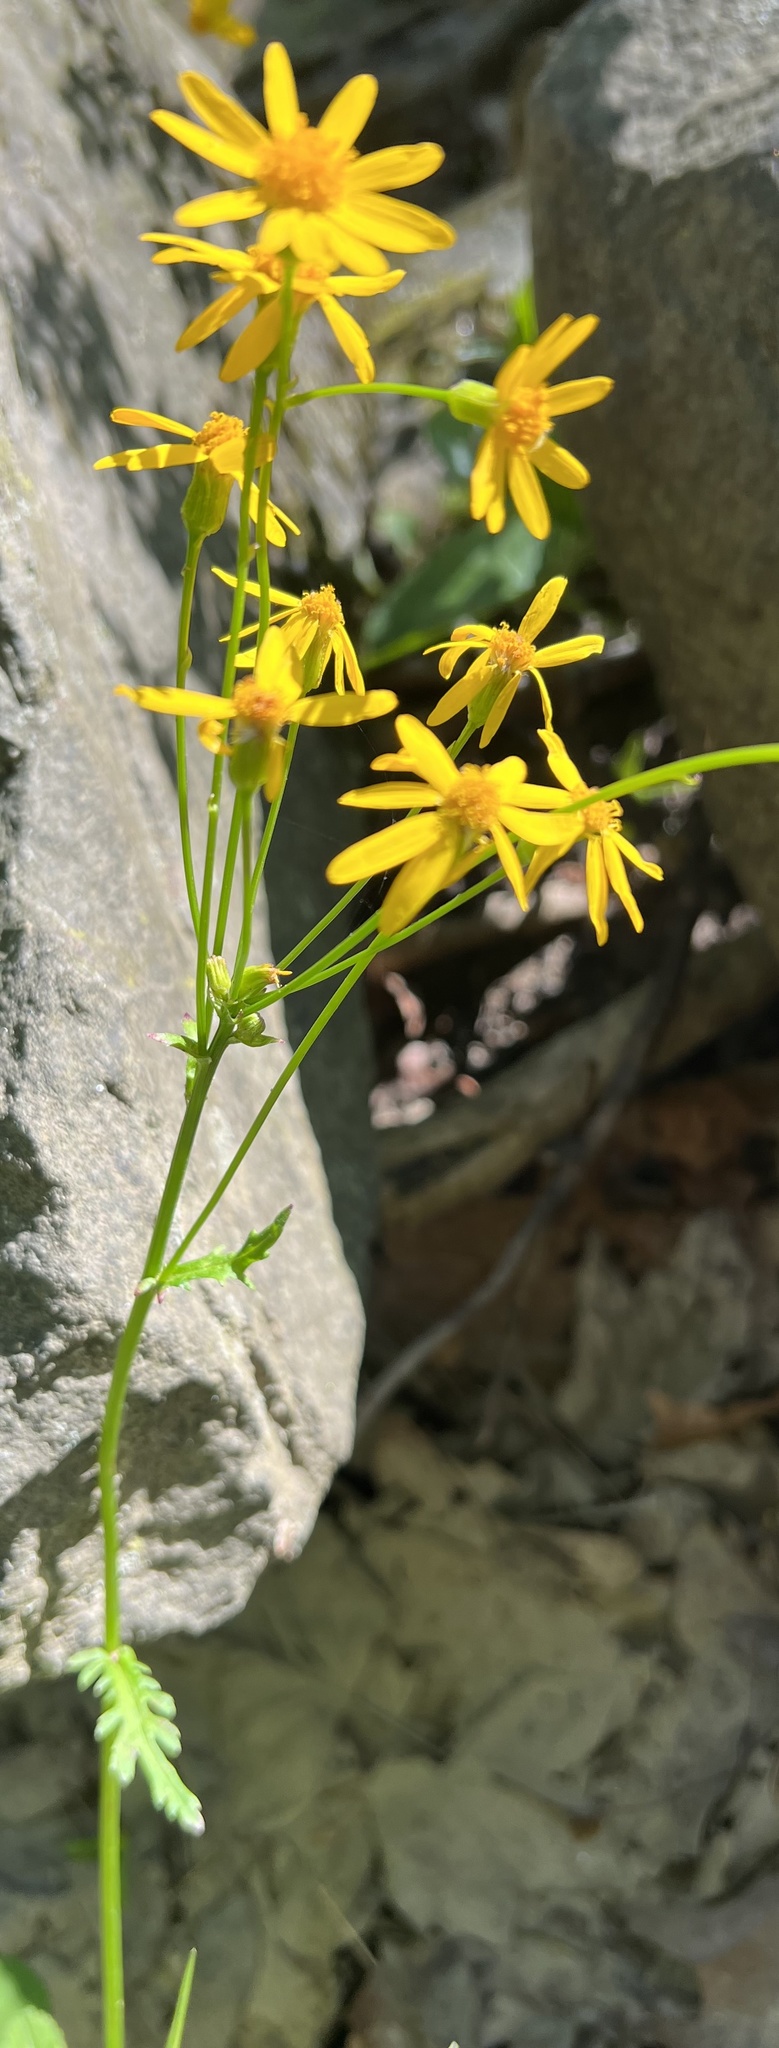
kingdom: Plantae
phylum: Tracheophyta
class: Magnoliopsida
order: Asterales
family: Asteraceae
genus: Packera
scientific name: Packera aurea
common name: Golden groundsel
